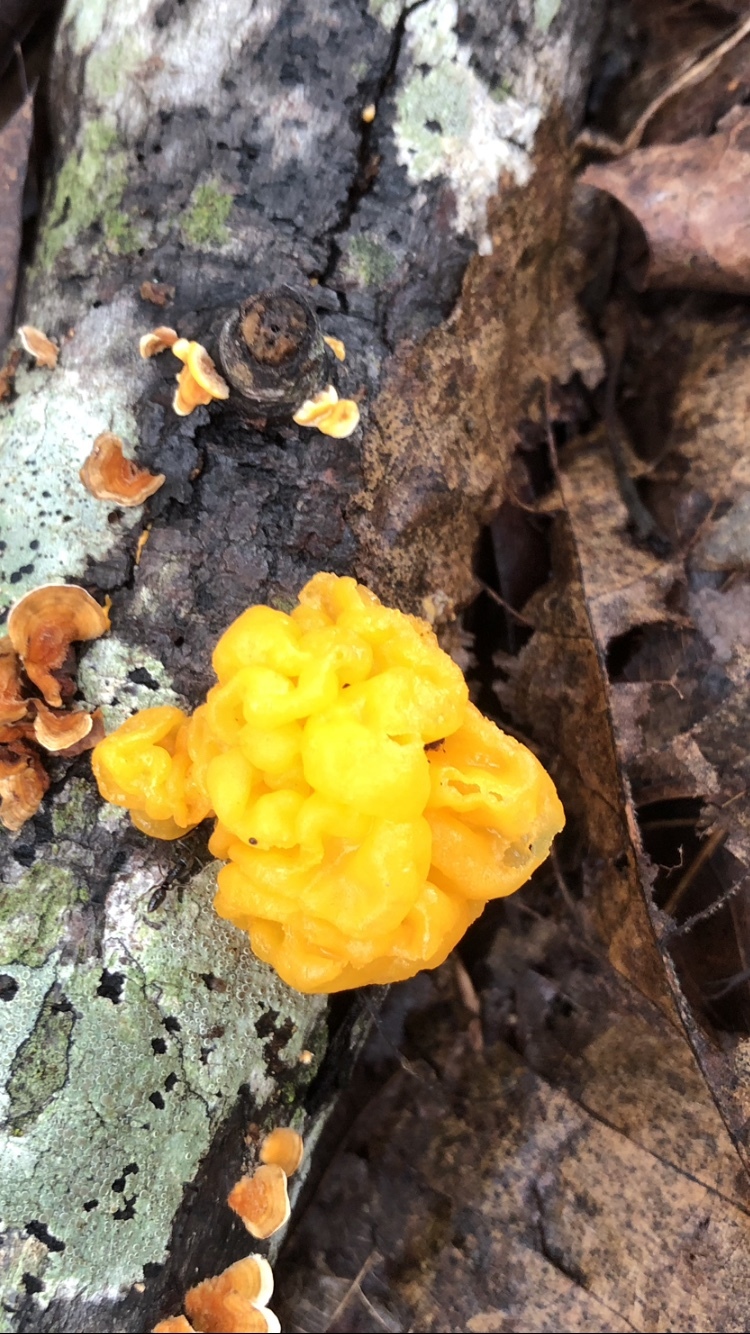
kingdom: Fungi
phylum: Basidiomycota
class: Tremellomycetes
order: Tremellales
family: Naemateliaceae
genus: Naematelia
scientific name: Naematelia aurantia
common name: Golden ear
